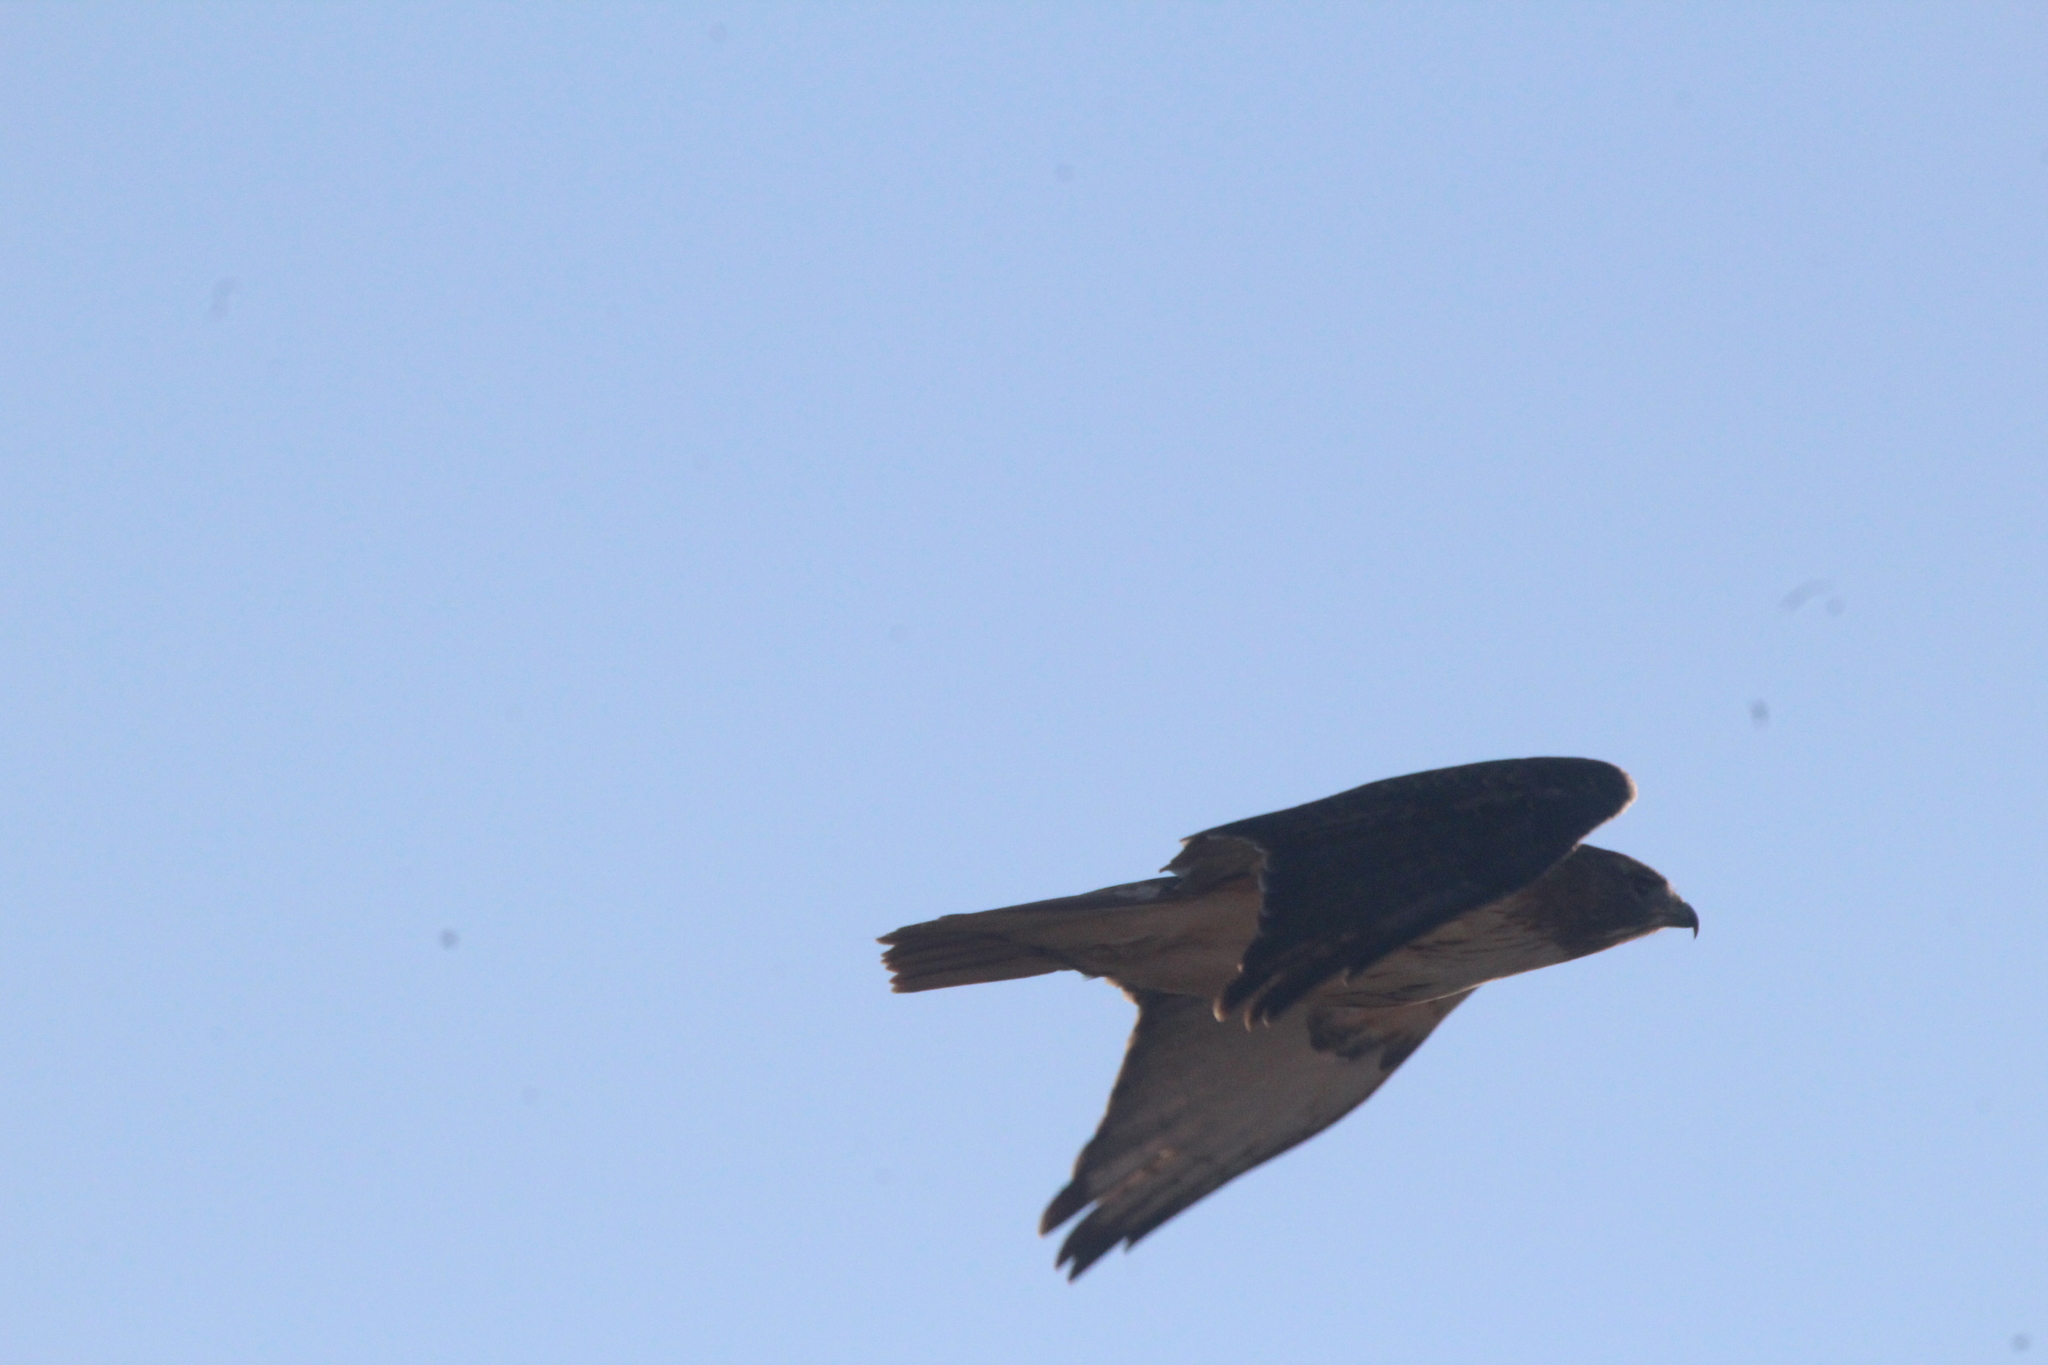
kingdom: Animalia
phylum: Chordata
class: Aves
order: Accipitriformes
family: Accipitridae
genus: Buteo
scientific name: Buteo jamaicensis
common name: Red-tailed hawk
